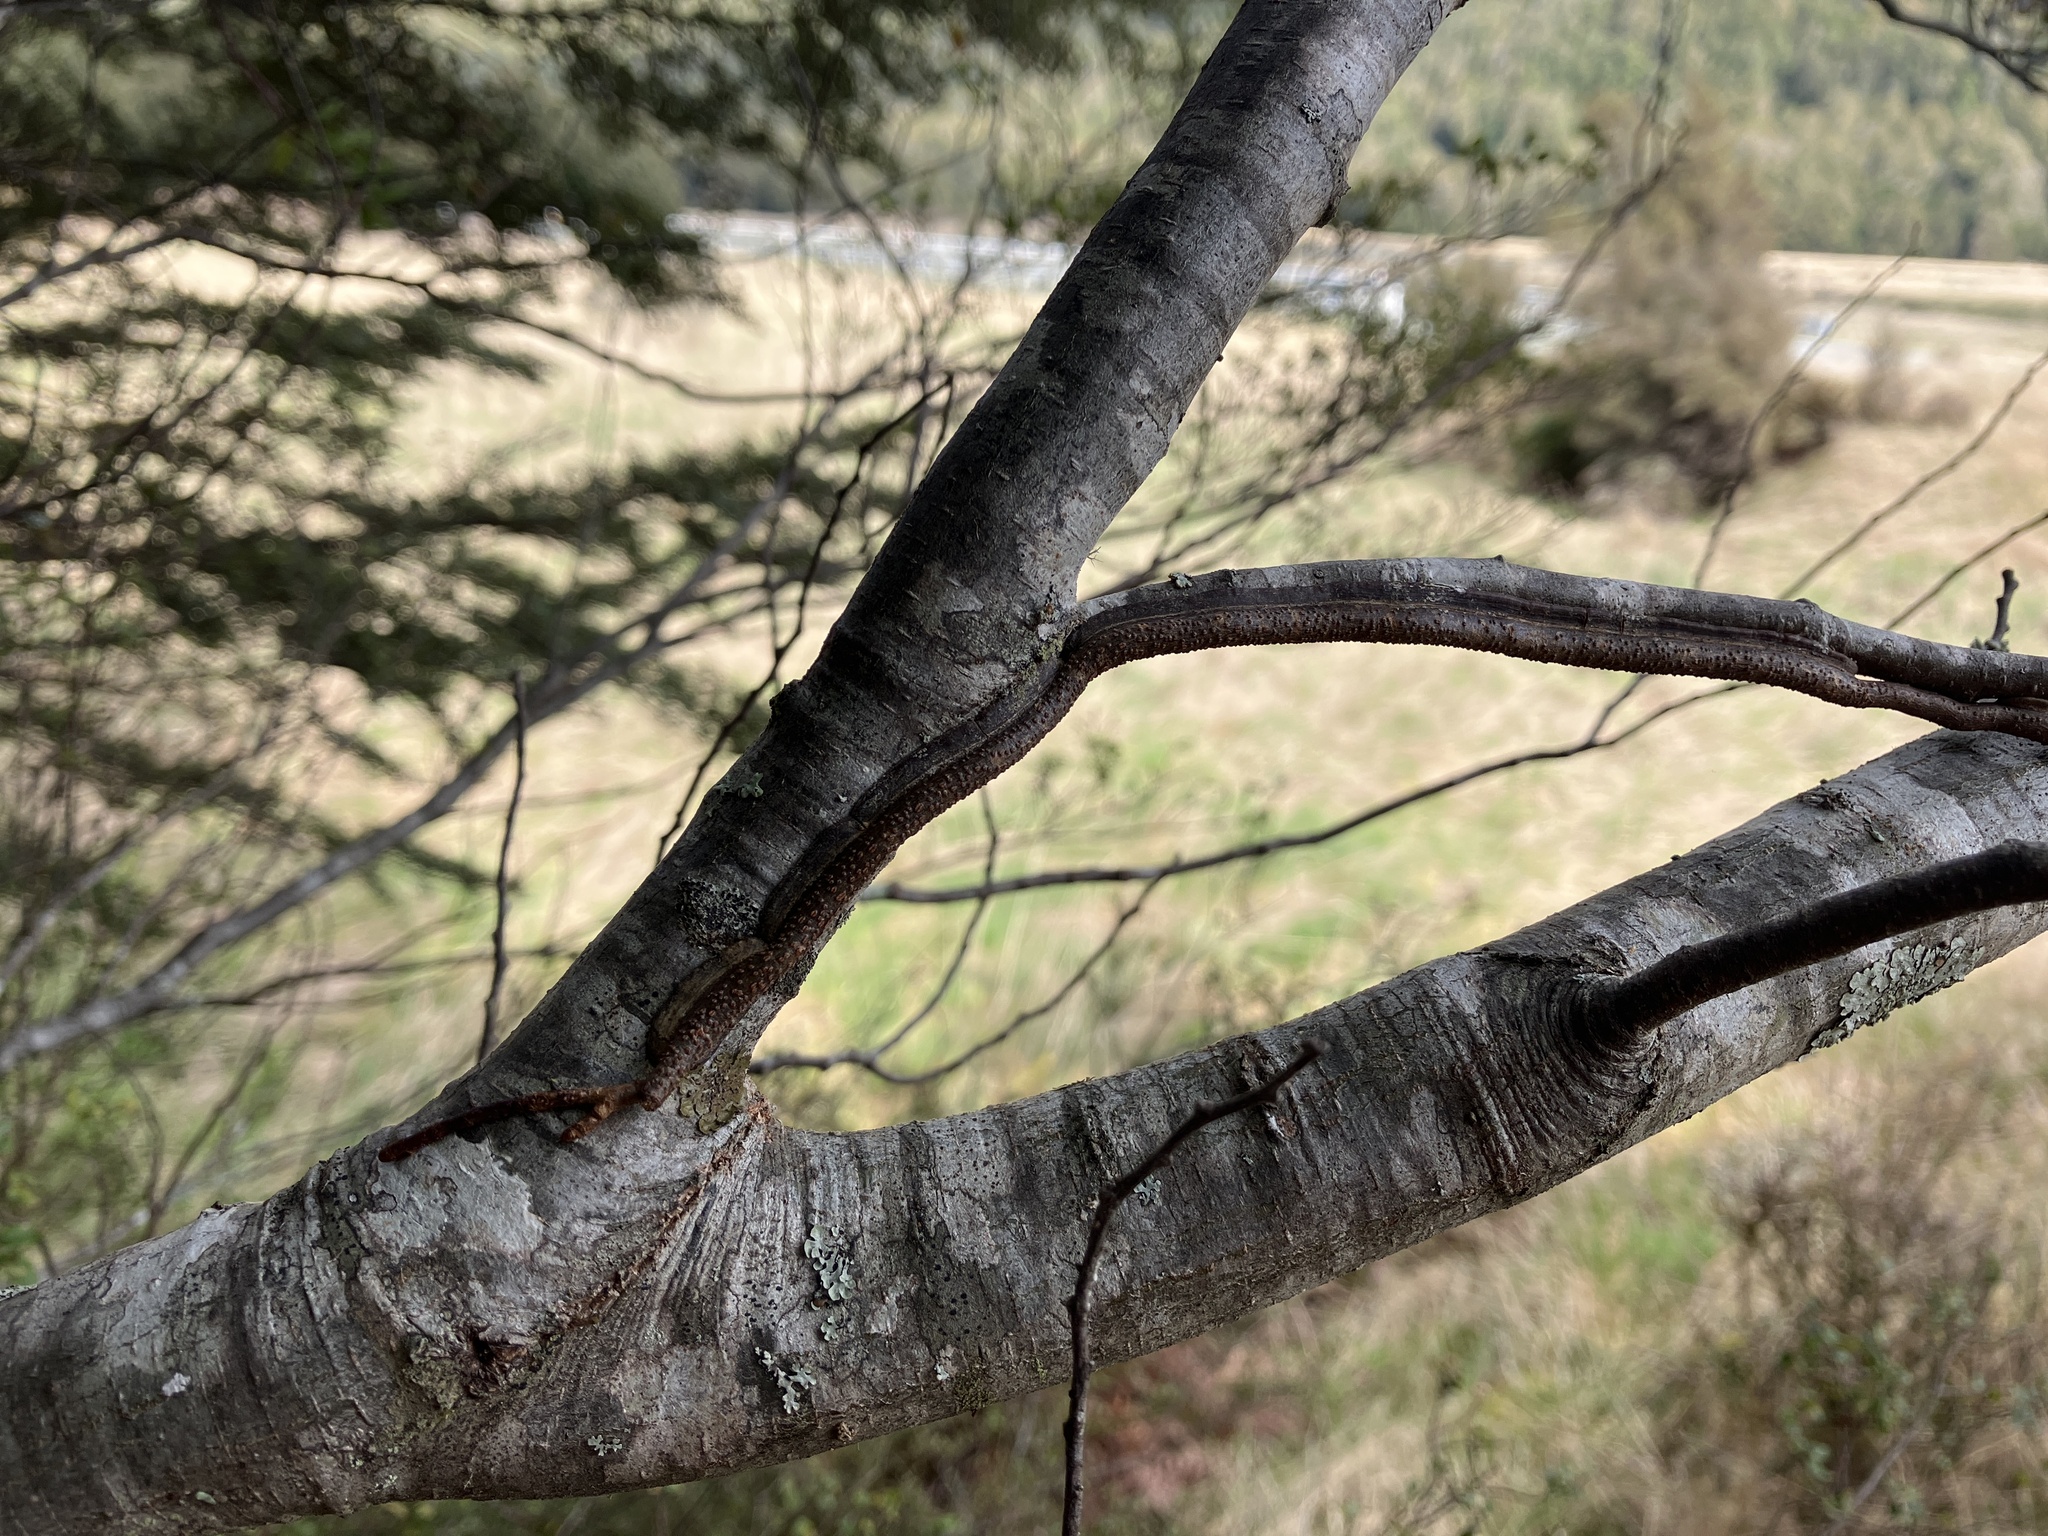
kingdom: Plantae
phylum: Tracheophyta
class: Magnoliopsida
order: Santalales
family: Loranthaceae
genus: Alepis
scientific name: Alepis flavida
